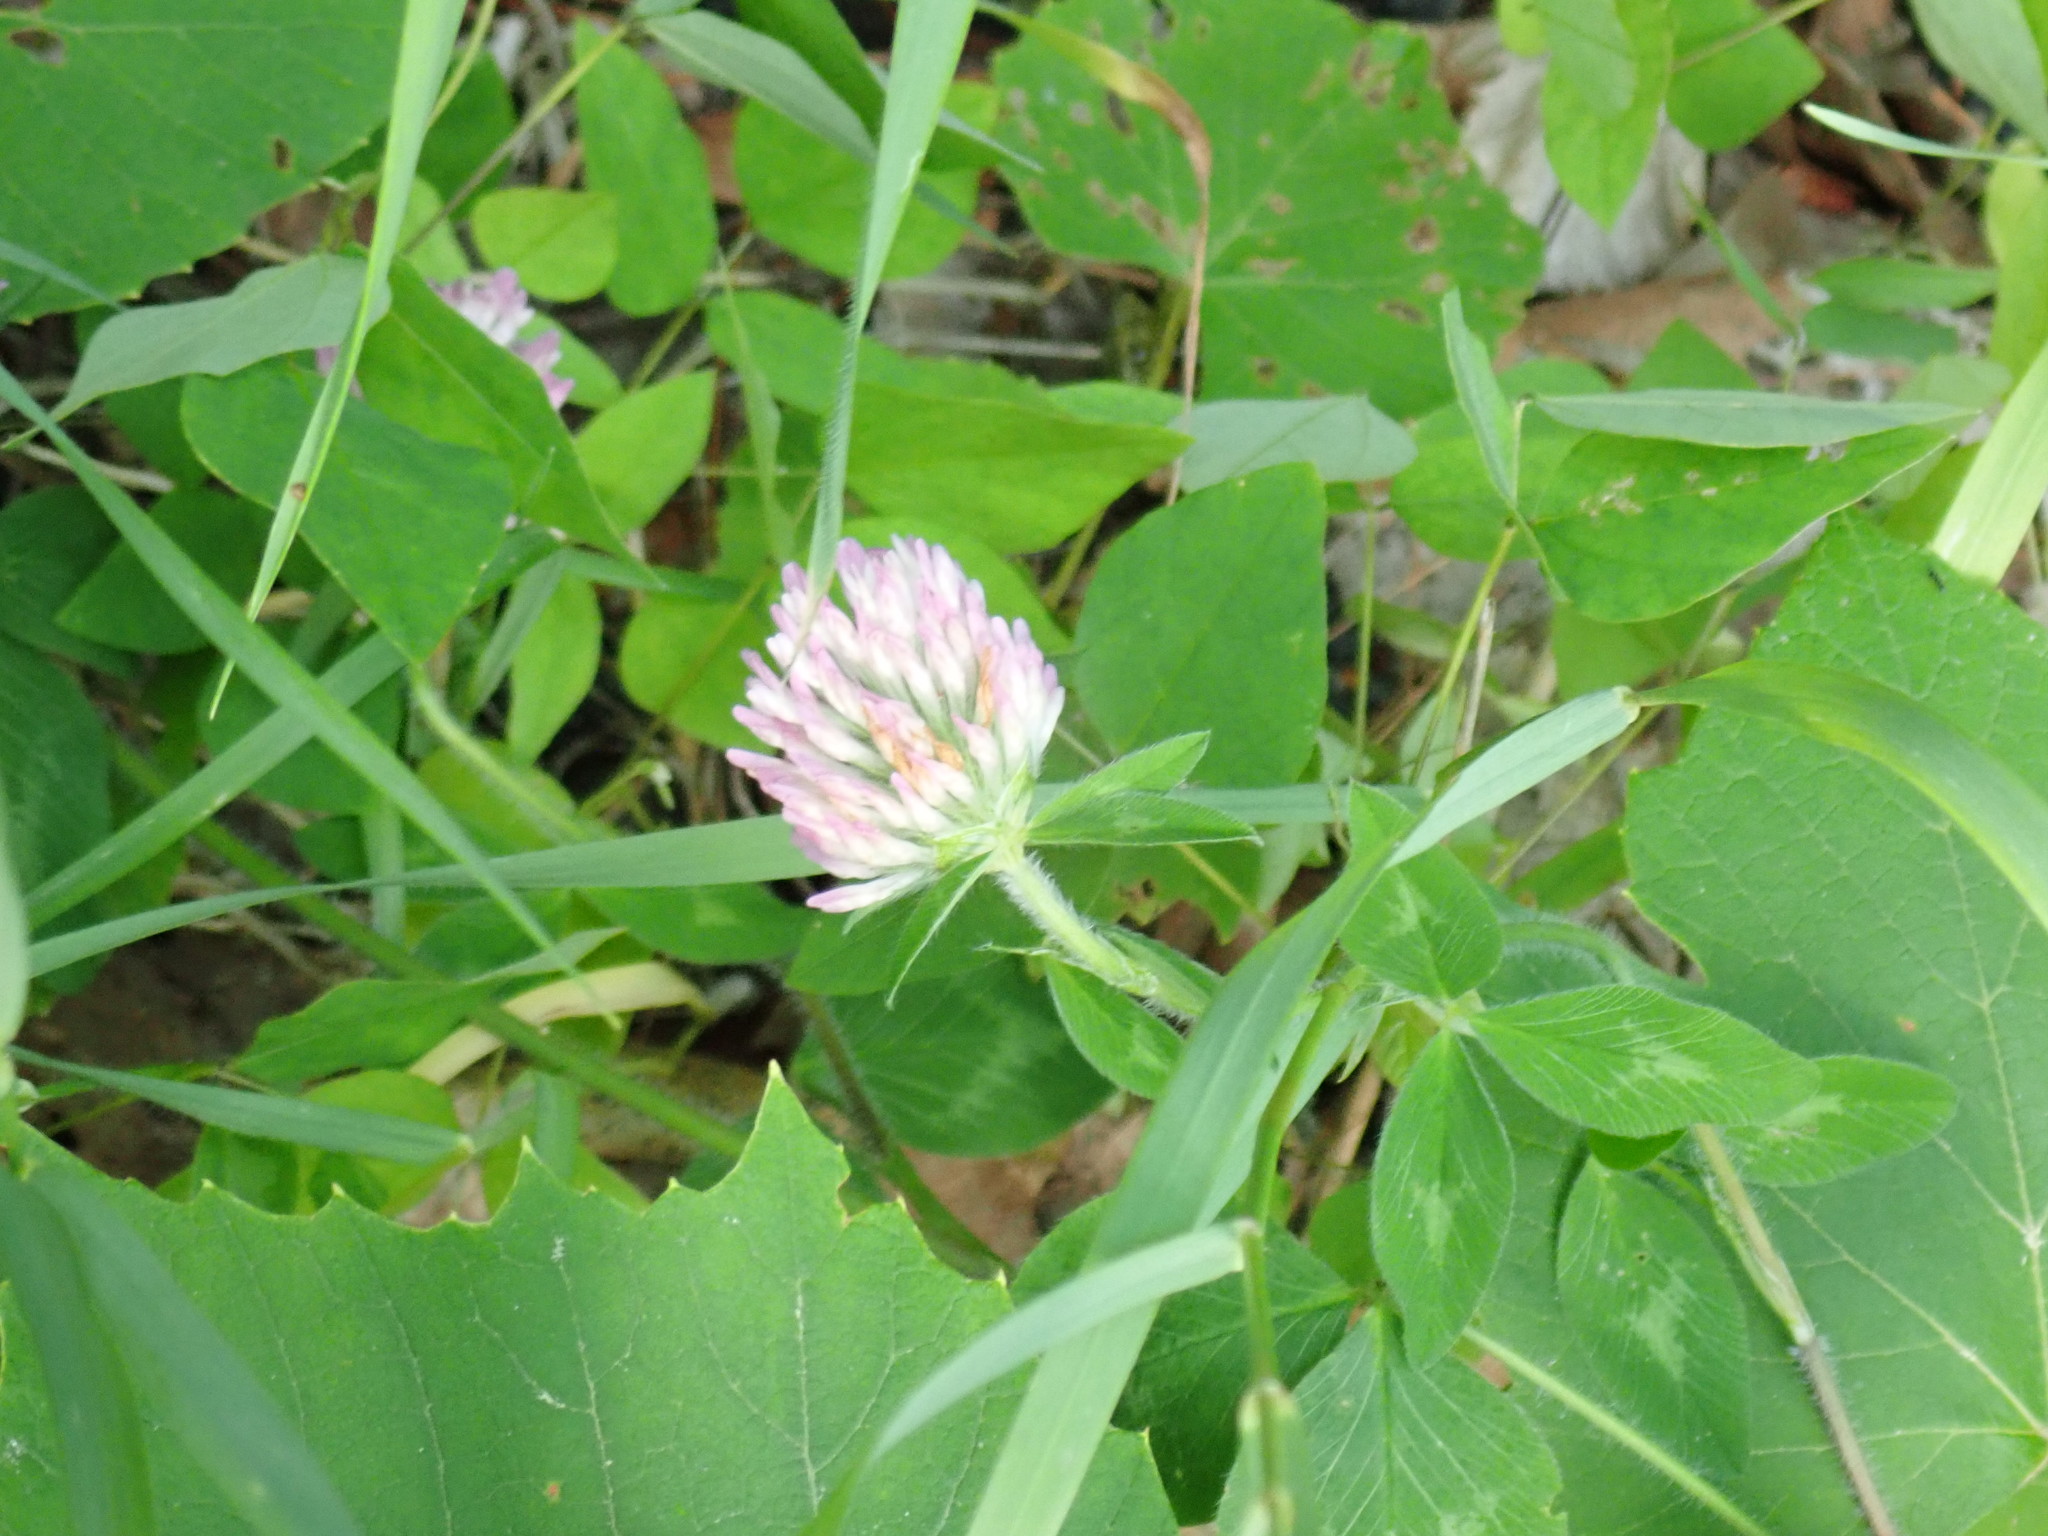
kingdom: Plantae
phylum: Tracheophyta
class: Magnoliopsida
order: Fabales
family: Fabaceae
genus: Trifolium
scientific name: Trifolium pratense
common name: Red clover
